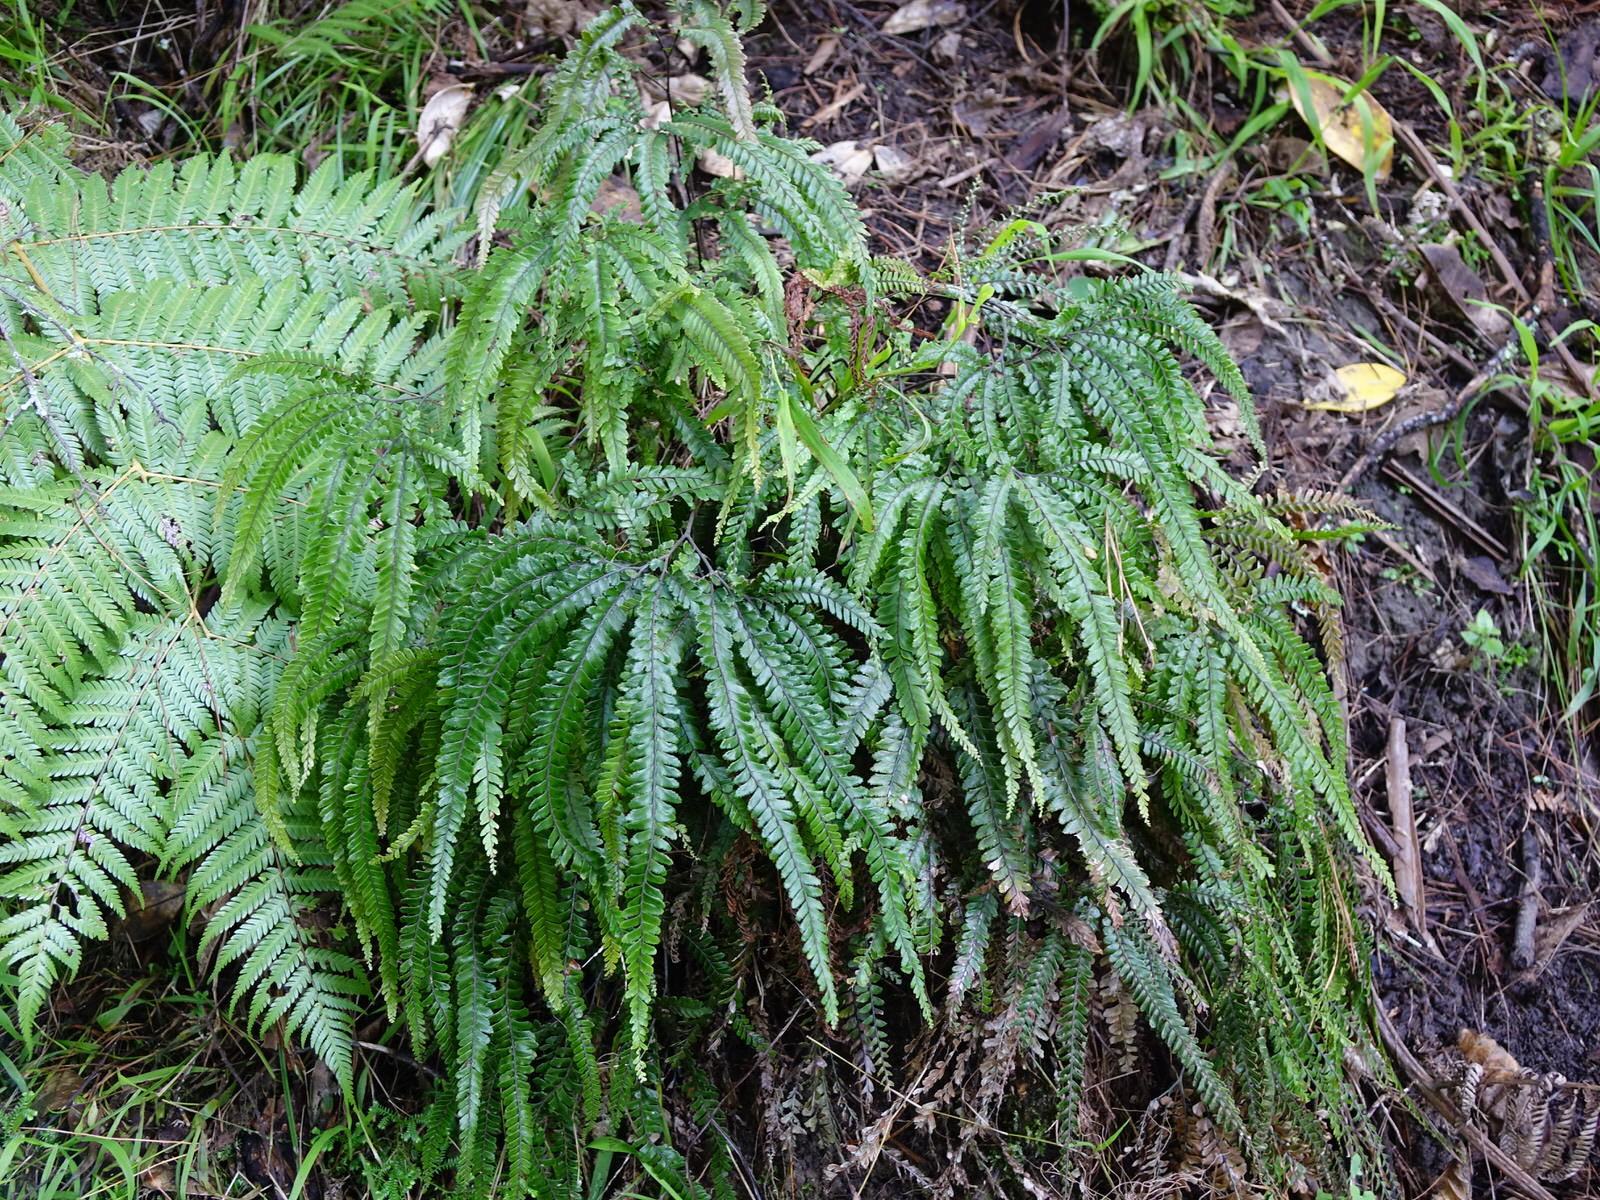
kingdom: Plantae
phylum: Tracheophyta
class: Polypodiopsida
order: Polypodiales
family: Pteridaceae
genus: Adiantum
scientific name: Adiantum hispidulum
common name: Rough maidenhair
